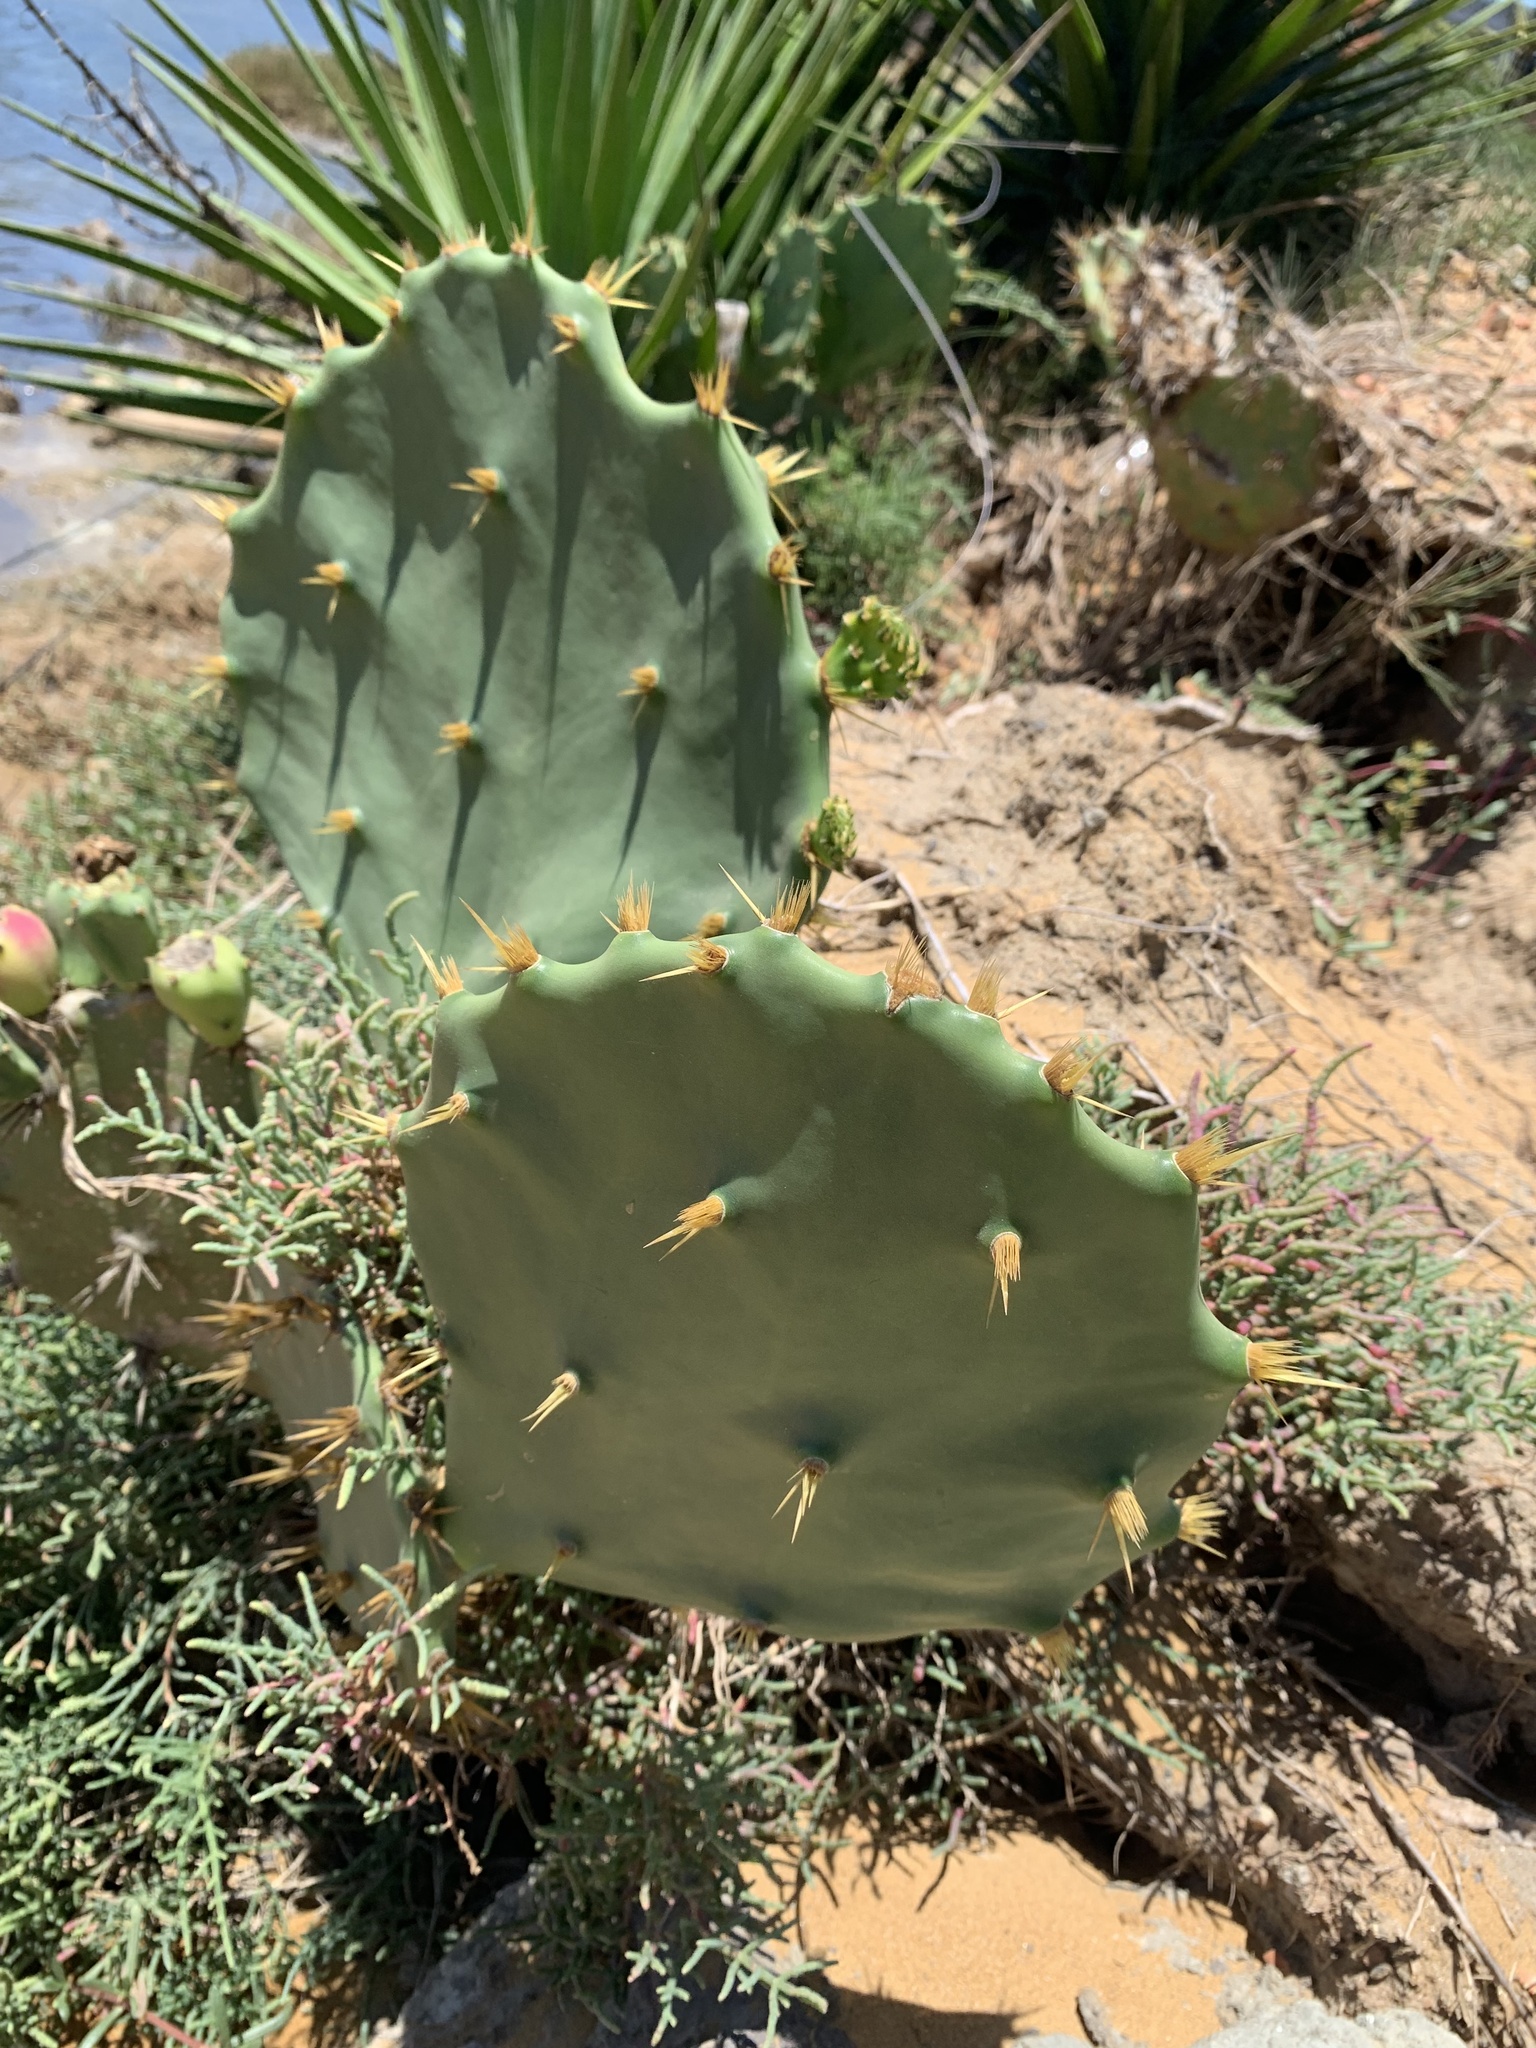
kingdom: Plantae
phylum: Tracheophyta
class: Magnoliopsida
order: Caryophyllales
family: Cactaceae
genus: Opuntia
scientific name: Opuntia dillenii
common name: Sour prickle
